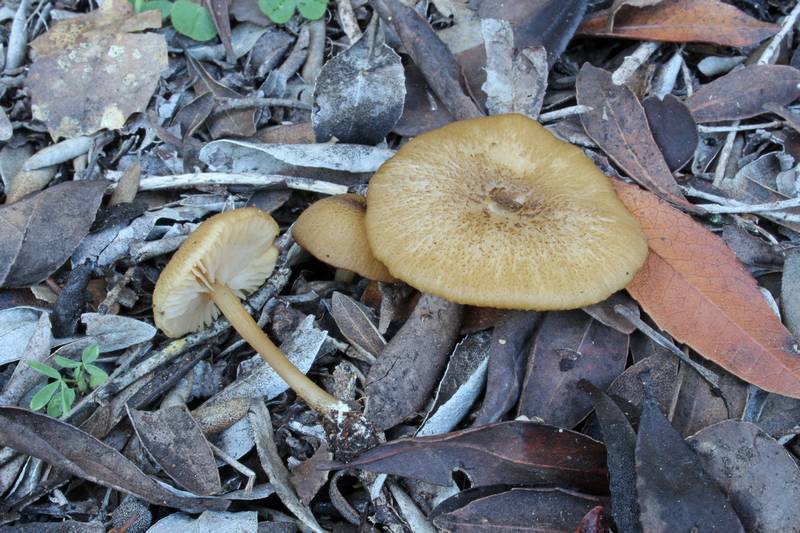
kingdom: Fungi
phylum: Basidiomycota
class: Agaricomycetes
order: Agaricales
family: Entolomataceae
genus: Entoloma
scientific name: Entoloma reinwaldii
